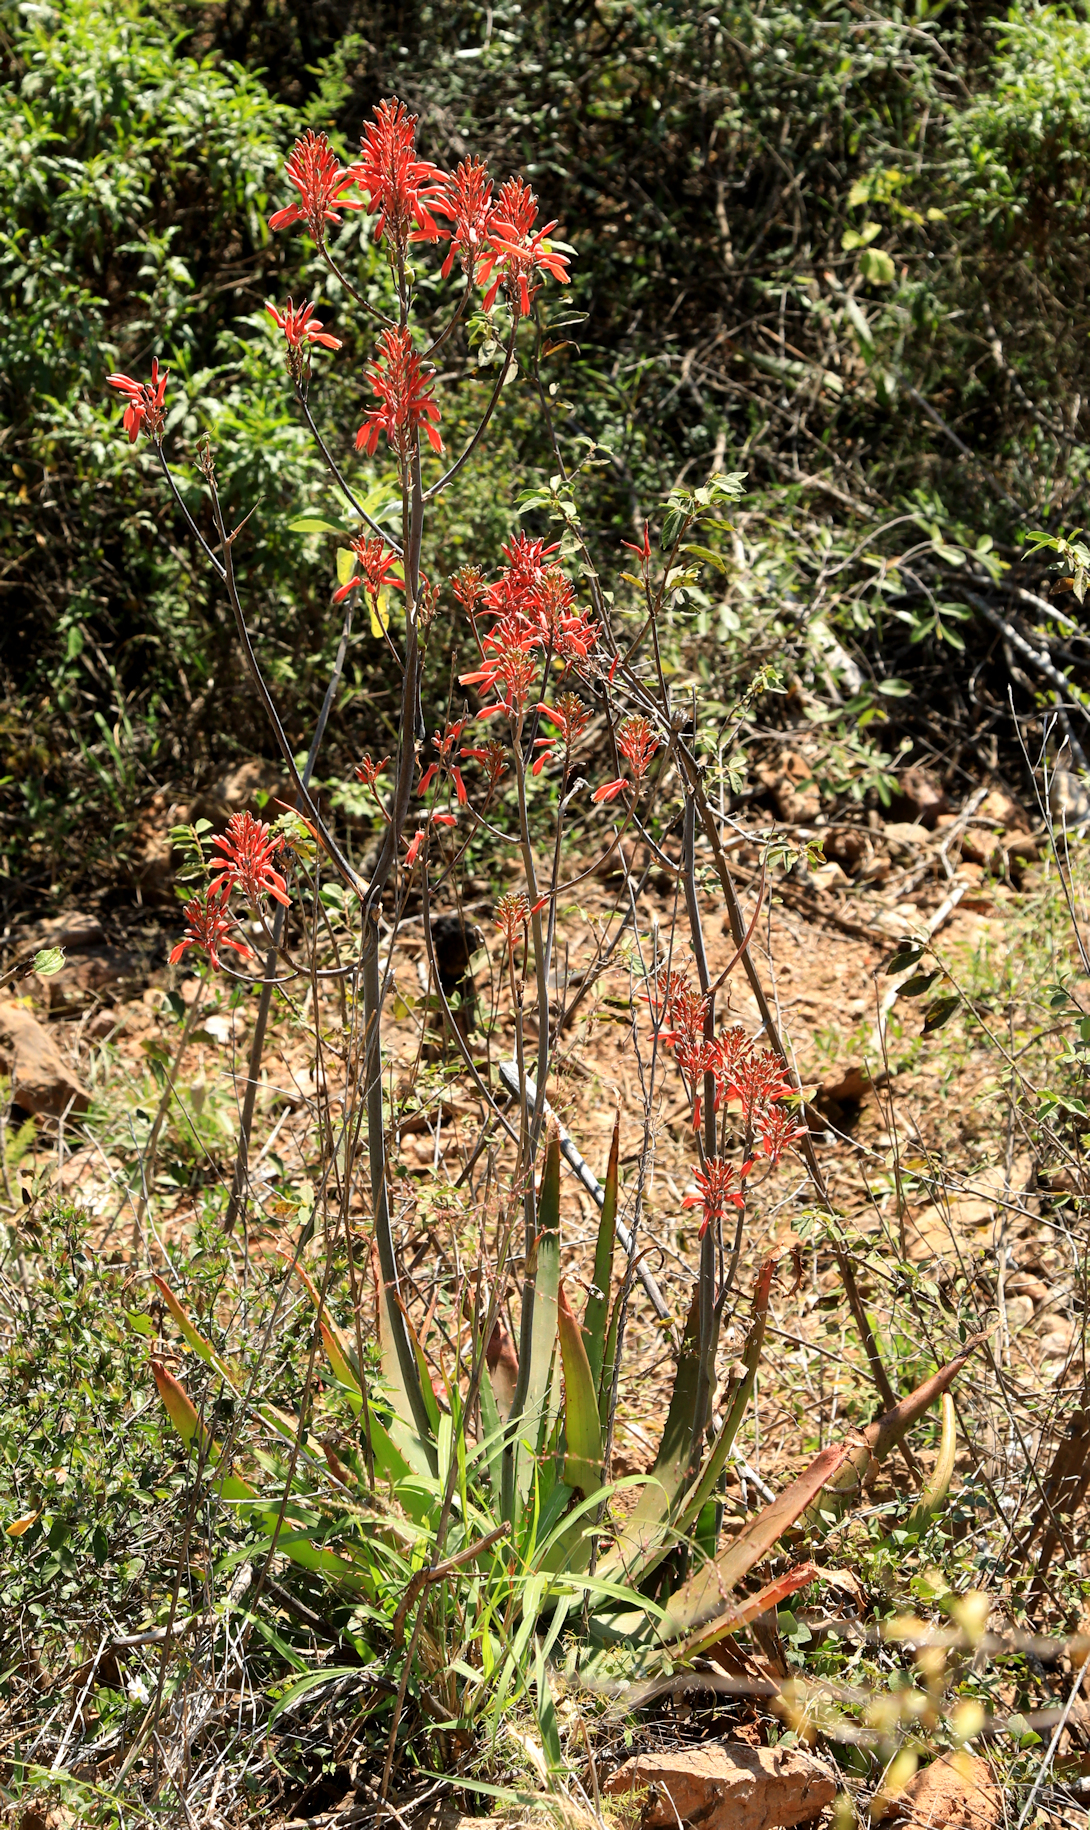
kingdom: Plantae
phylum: Tracheophyta
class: Liliopsida
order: Asparagales
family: Asphodelaceae
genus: Aloe
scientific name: Aloe branddraaiensis
